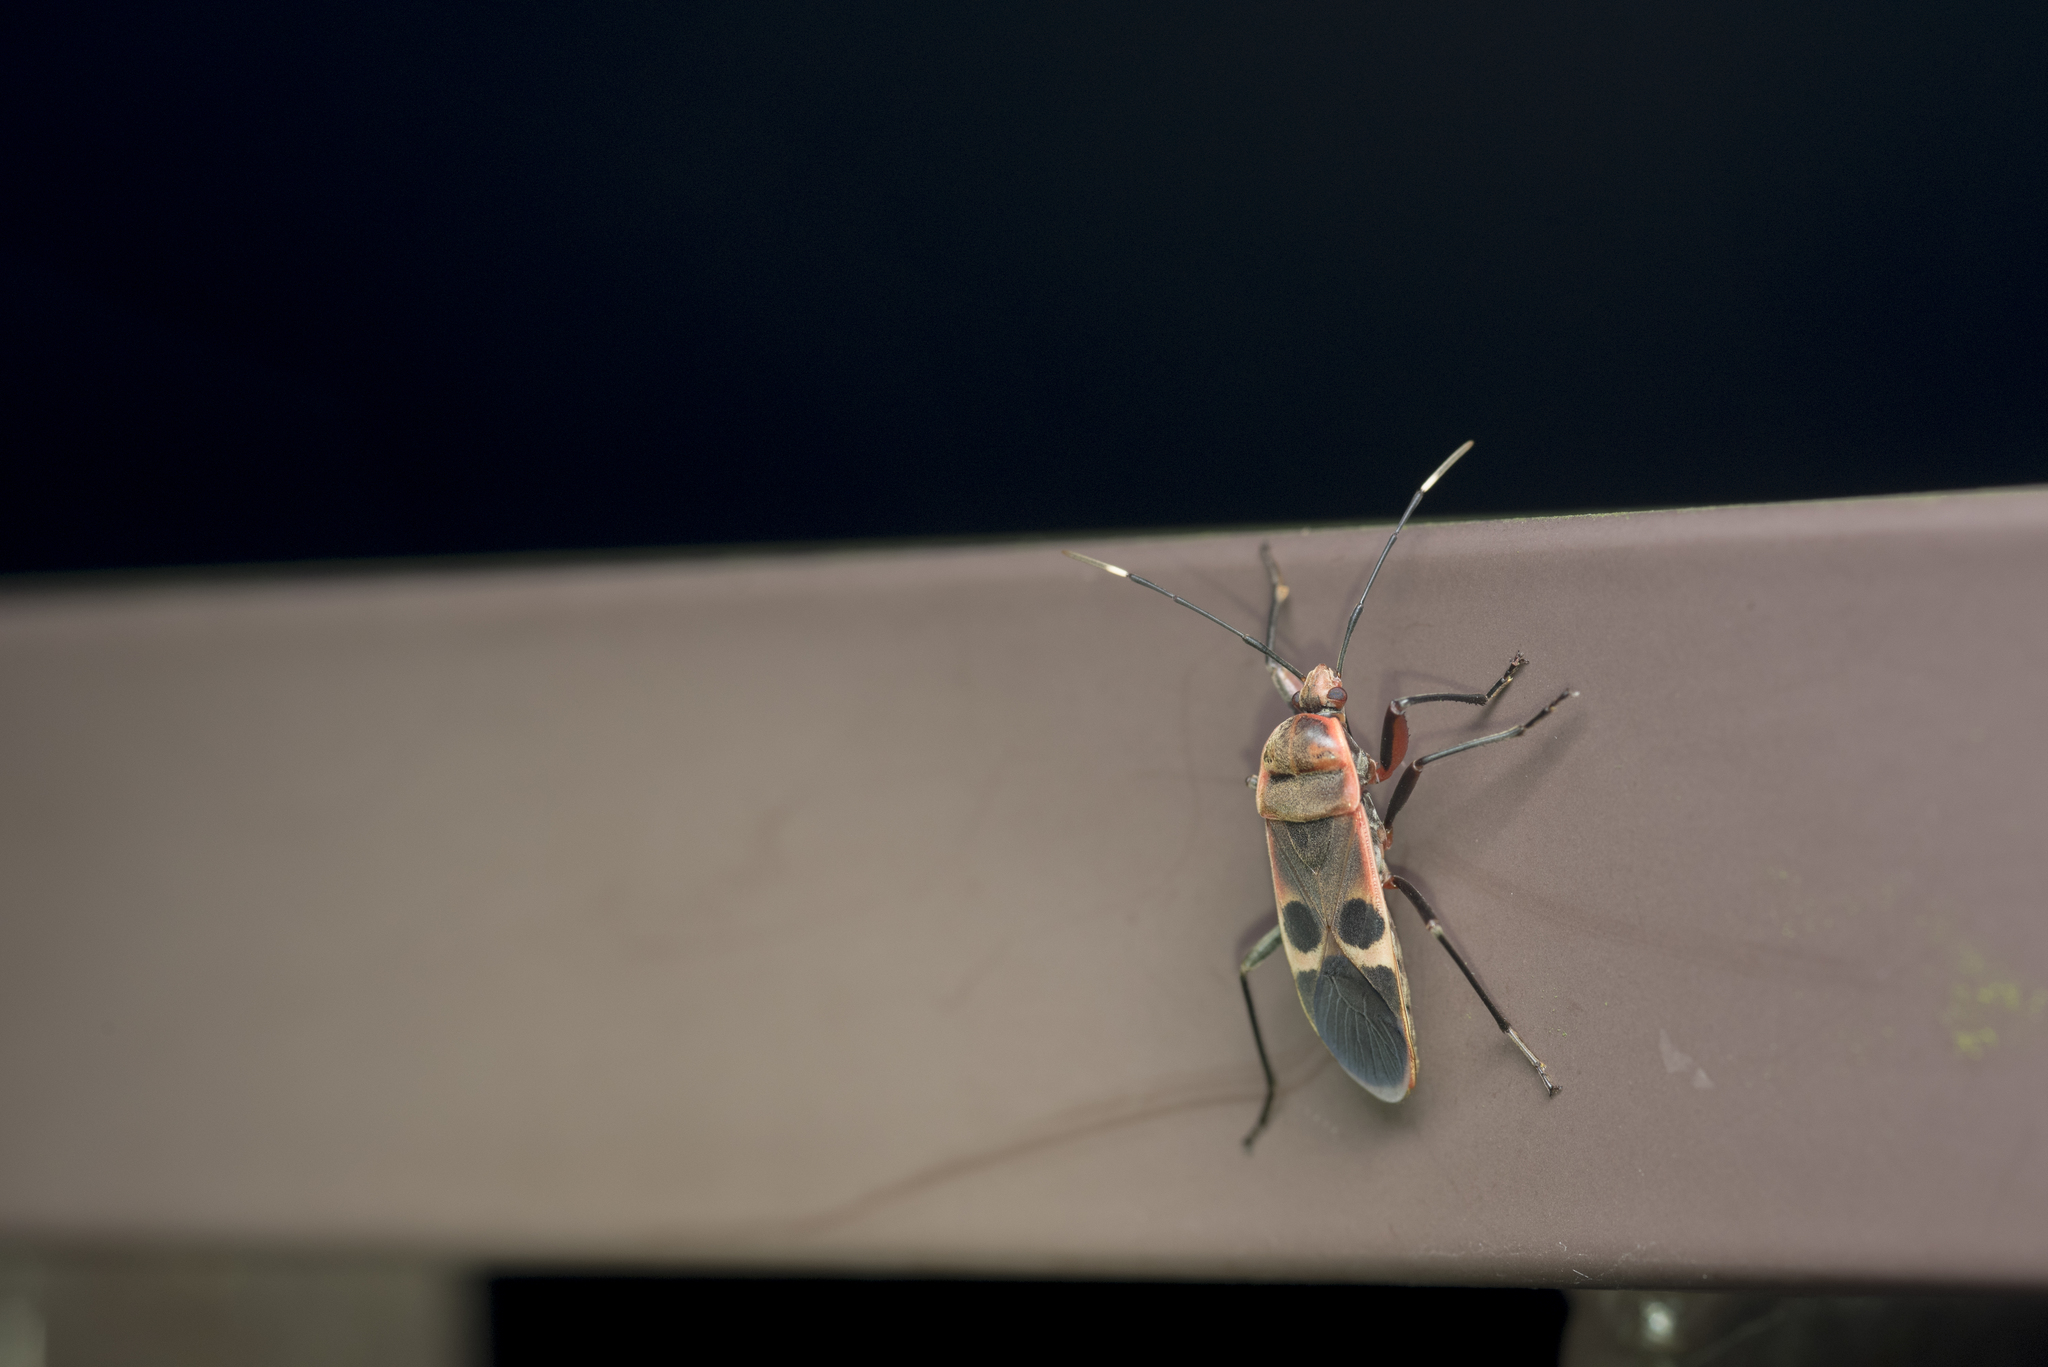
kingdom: Animalia
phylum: Arthropoda
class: Insecta
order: Hemiptera
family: Largidae
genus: Physopelta
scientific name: Physopelta gutta
